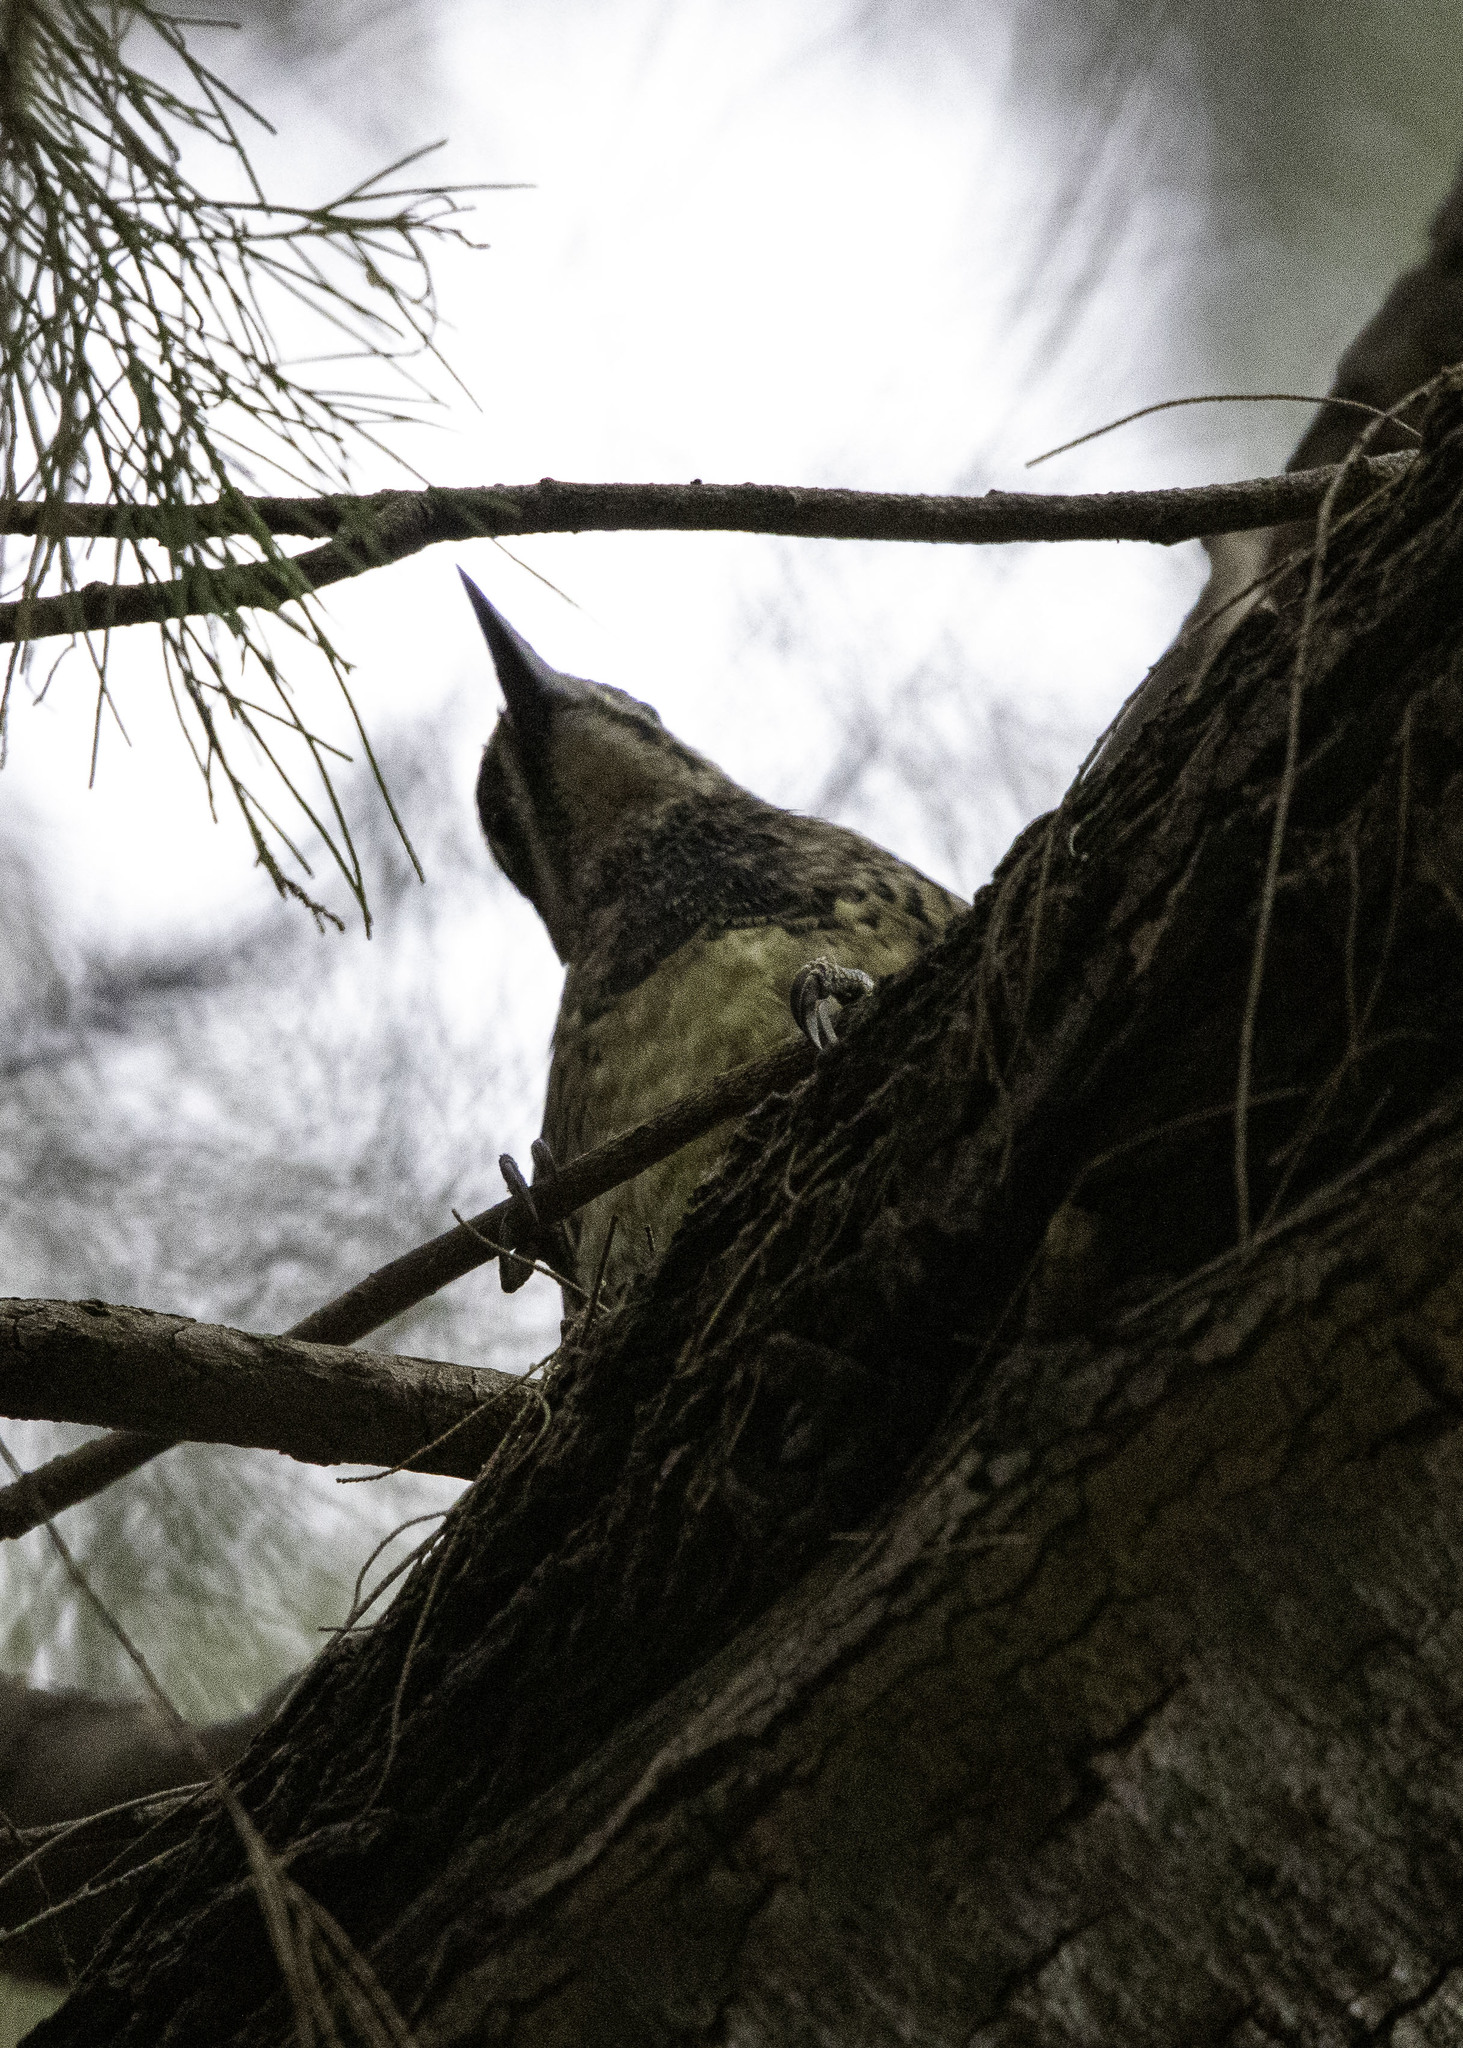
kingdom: Animalia
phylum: Chordata
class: Aves
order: Piciformes
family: Picidae
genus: Sphyrapicus
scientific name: Sphyrapicus varius
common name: Yellow-bellied sapsucker
